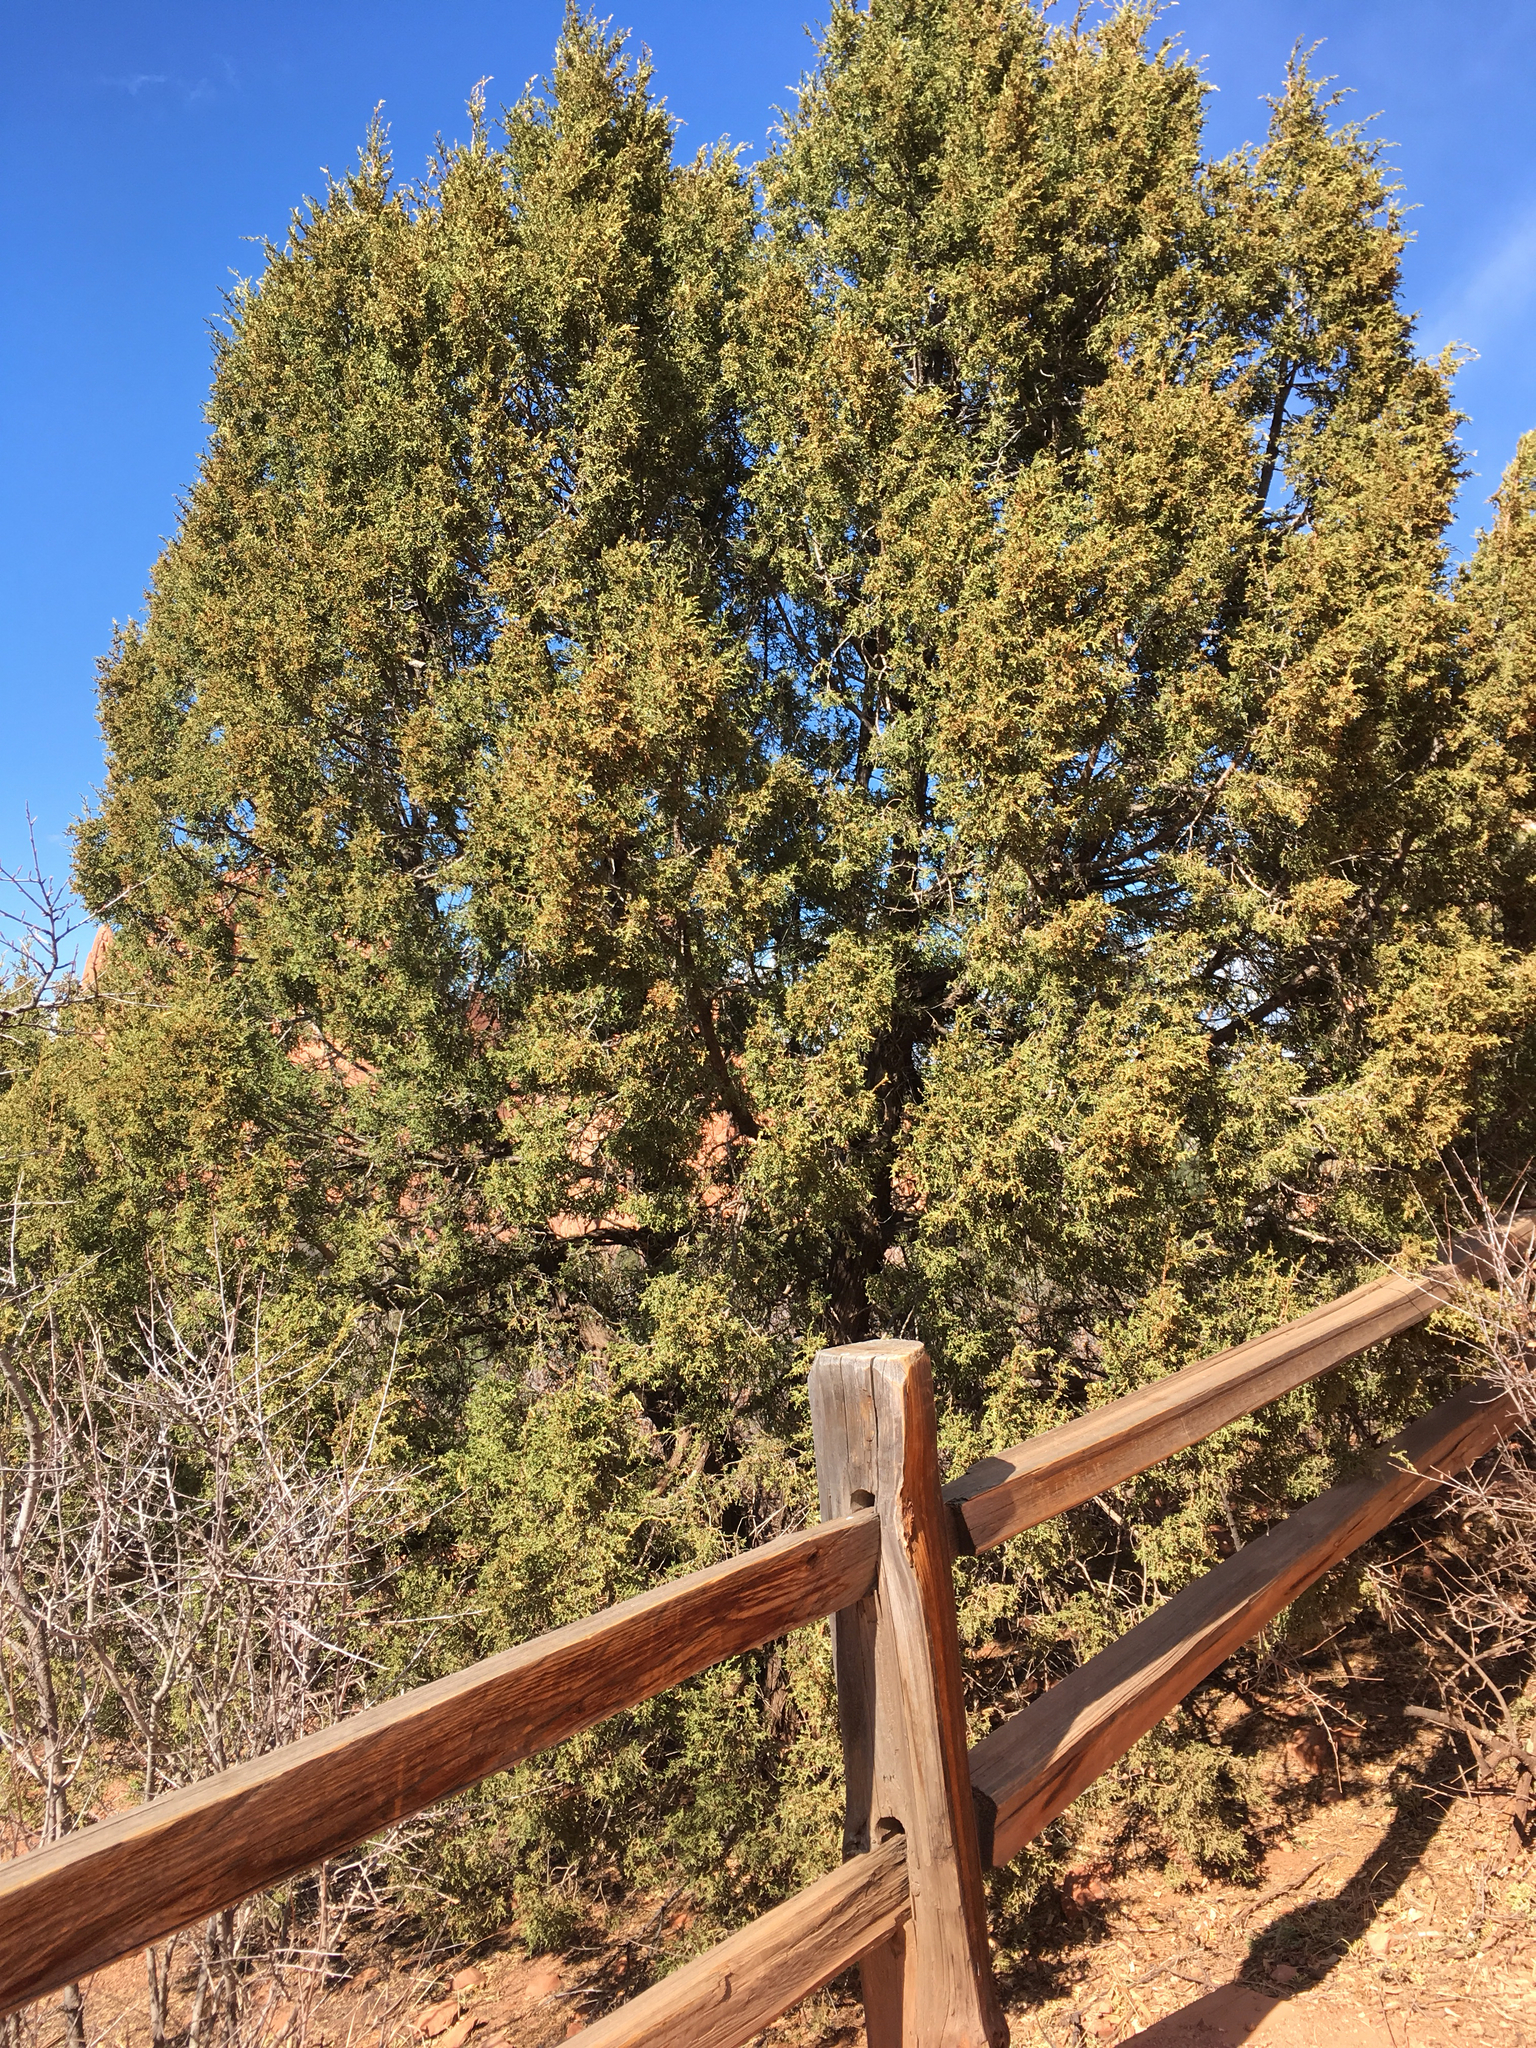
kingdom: Plantae
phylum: Tracheophyta
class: Pinopsida
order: Pinales
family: Cupressaceae
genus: Juniperus
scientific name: Juniperus monosperma
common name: One-seed juniper
